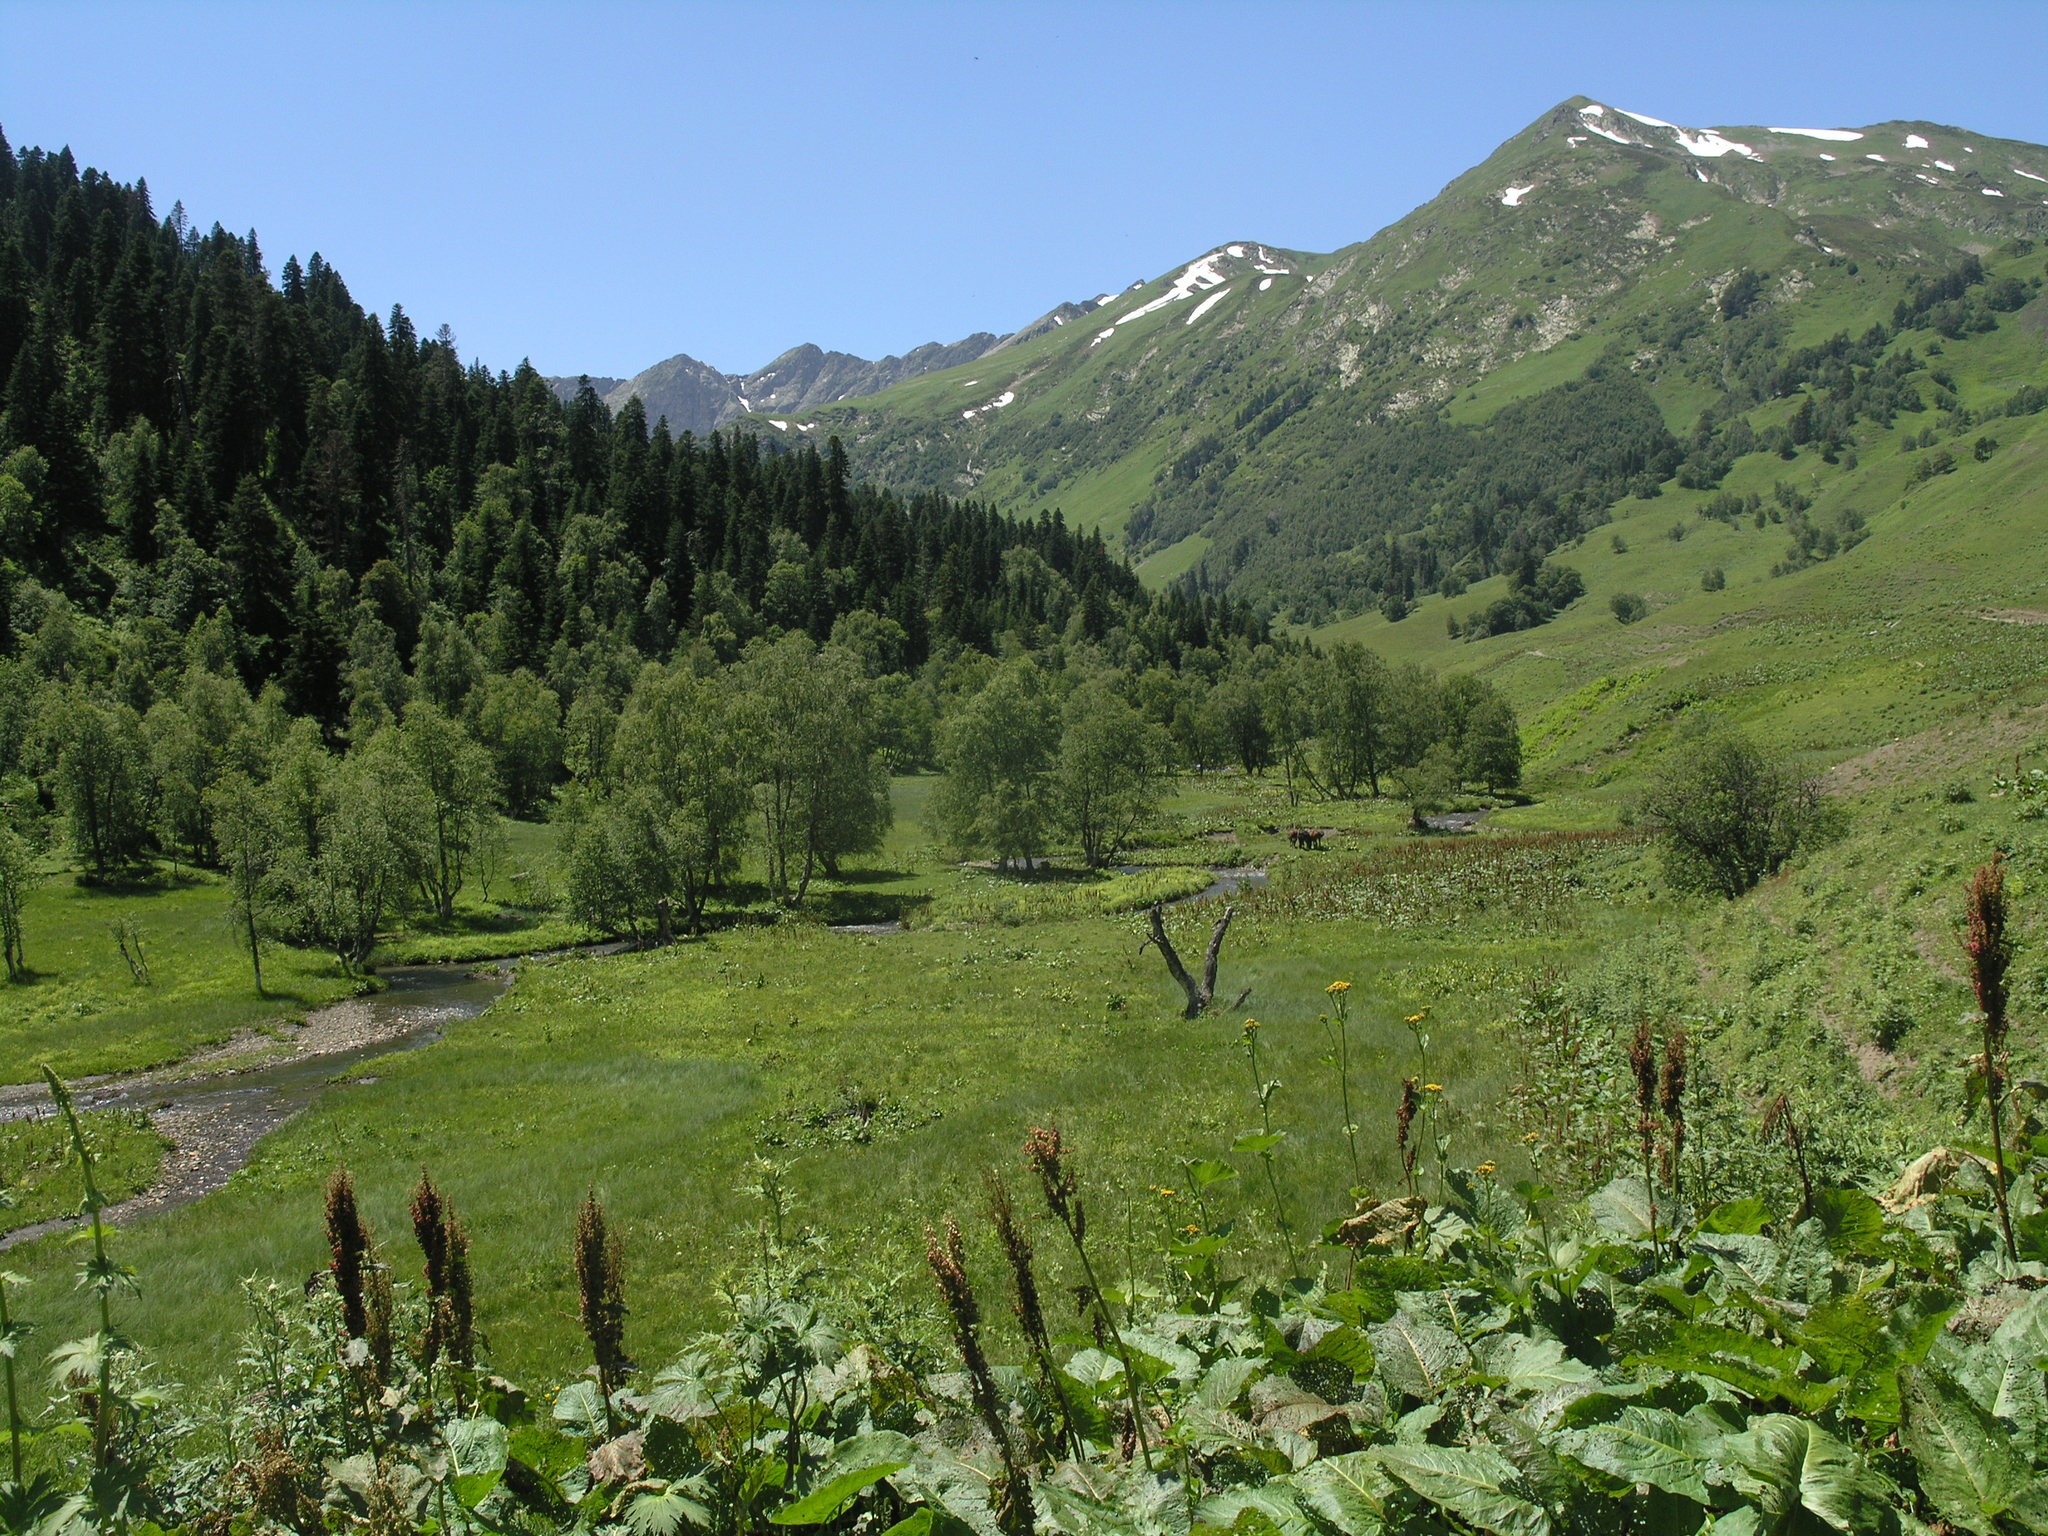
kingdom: Plantae
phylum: Tracheophyta
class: Magnoliopsida
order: Caryophyllales
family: Polygonaceae
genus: Rumex
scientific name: Rumex alpinus
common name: Alpine dock
